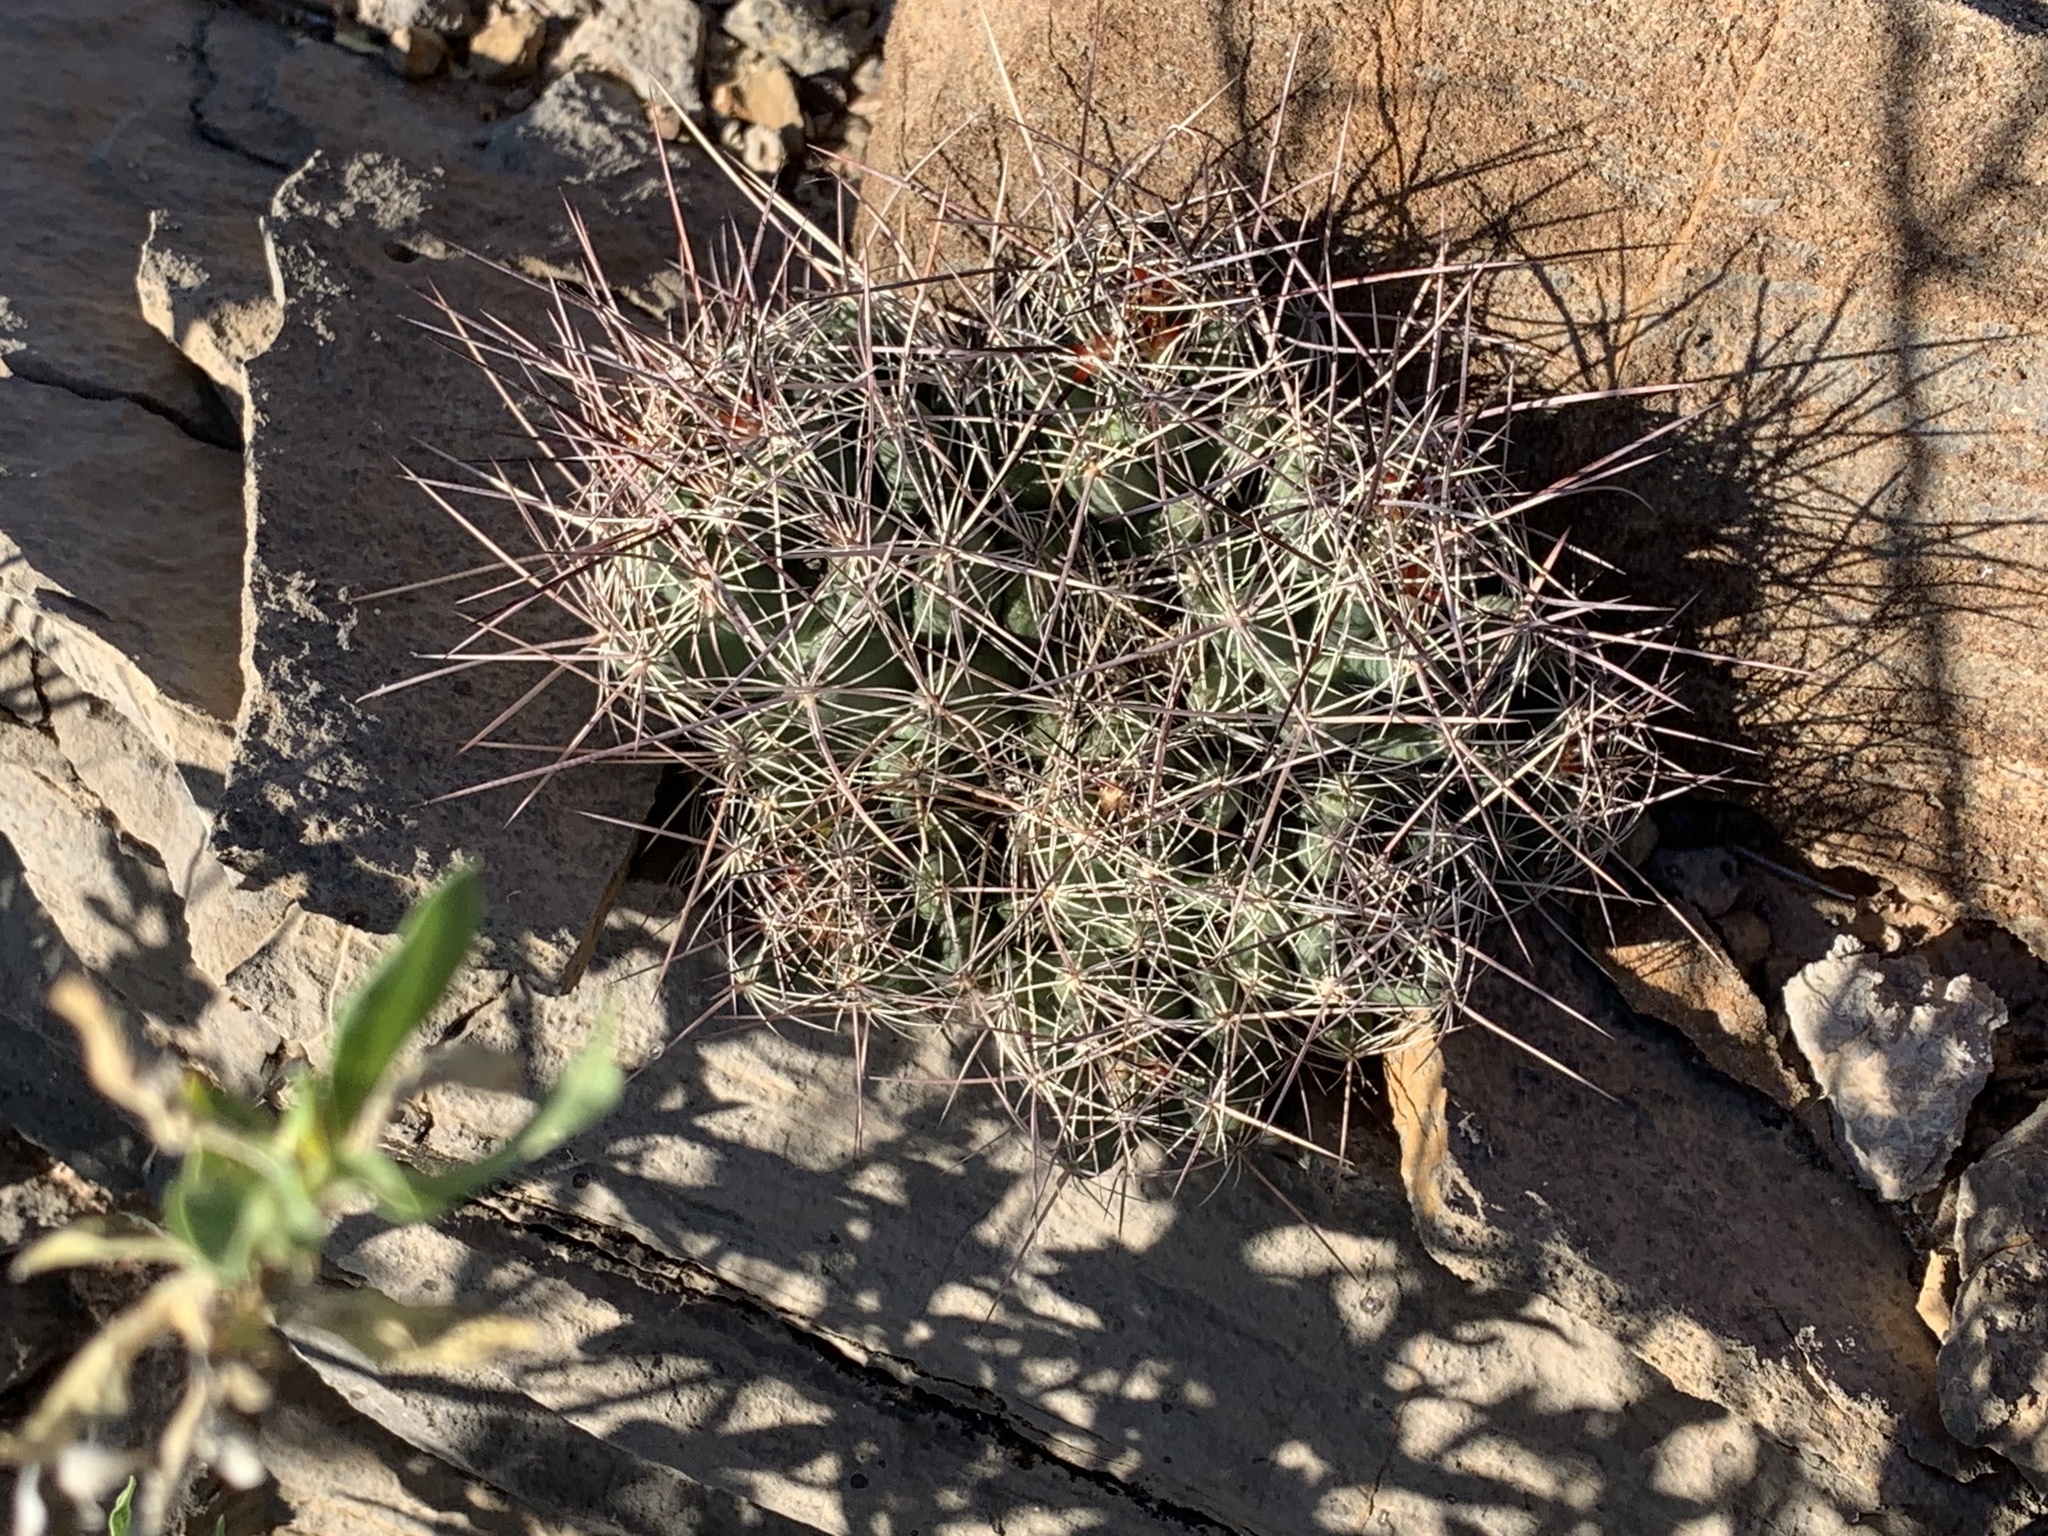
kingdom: Plantae
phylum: Tracheophyta
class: Magnoliopsida
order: Caryophyllales
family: Cactaceae
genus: Coryphantha
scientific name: Coryphantha macromeris
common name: Nipple beehive cactus
